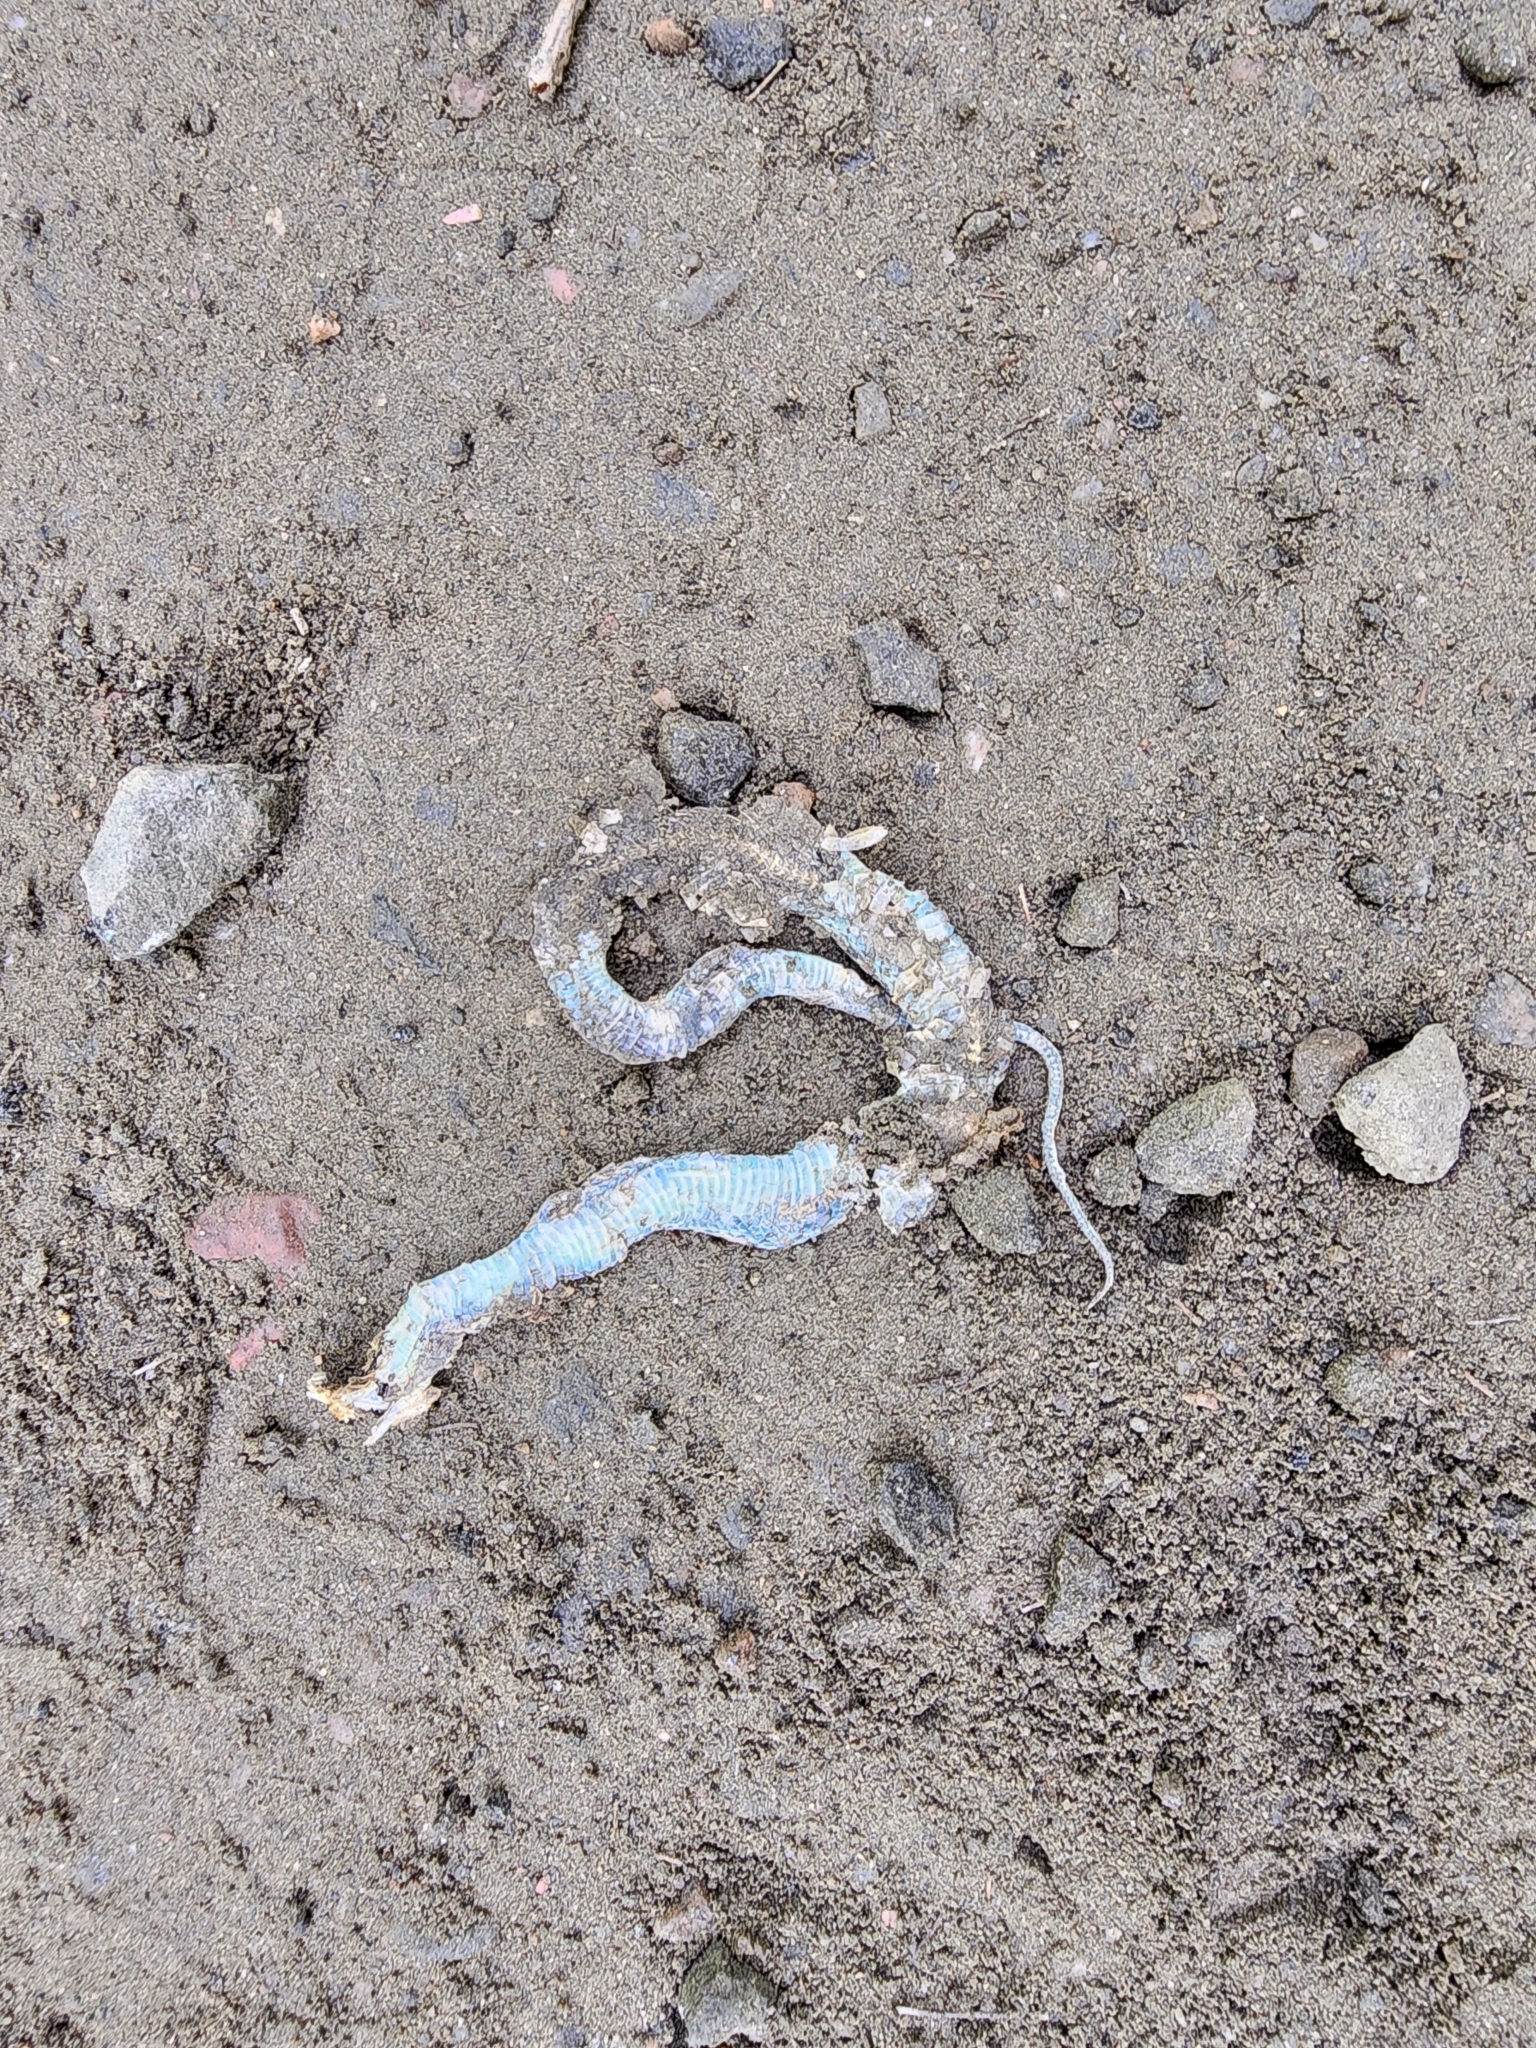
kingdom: Animalia
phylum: Chordata
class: Squamata
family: Colubridae
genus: Thamnophis
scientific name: Thamnophis sirtalis
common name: Common garter snake
